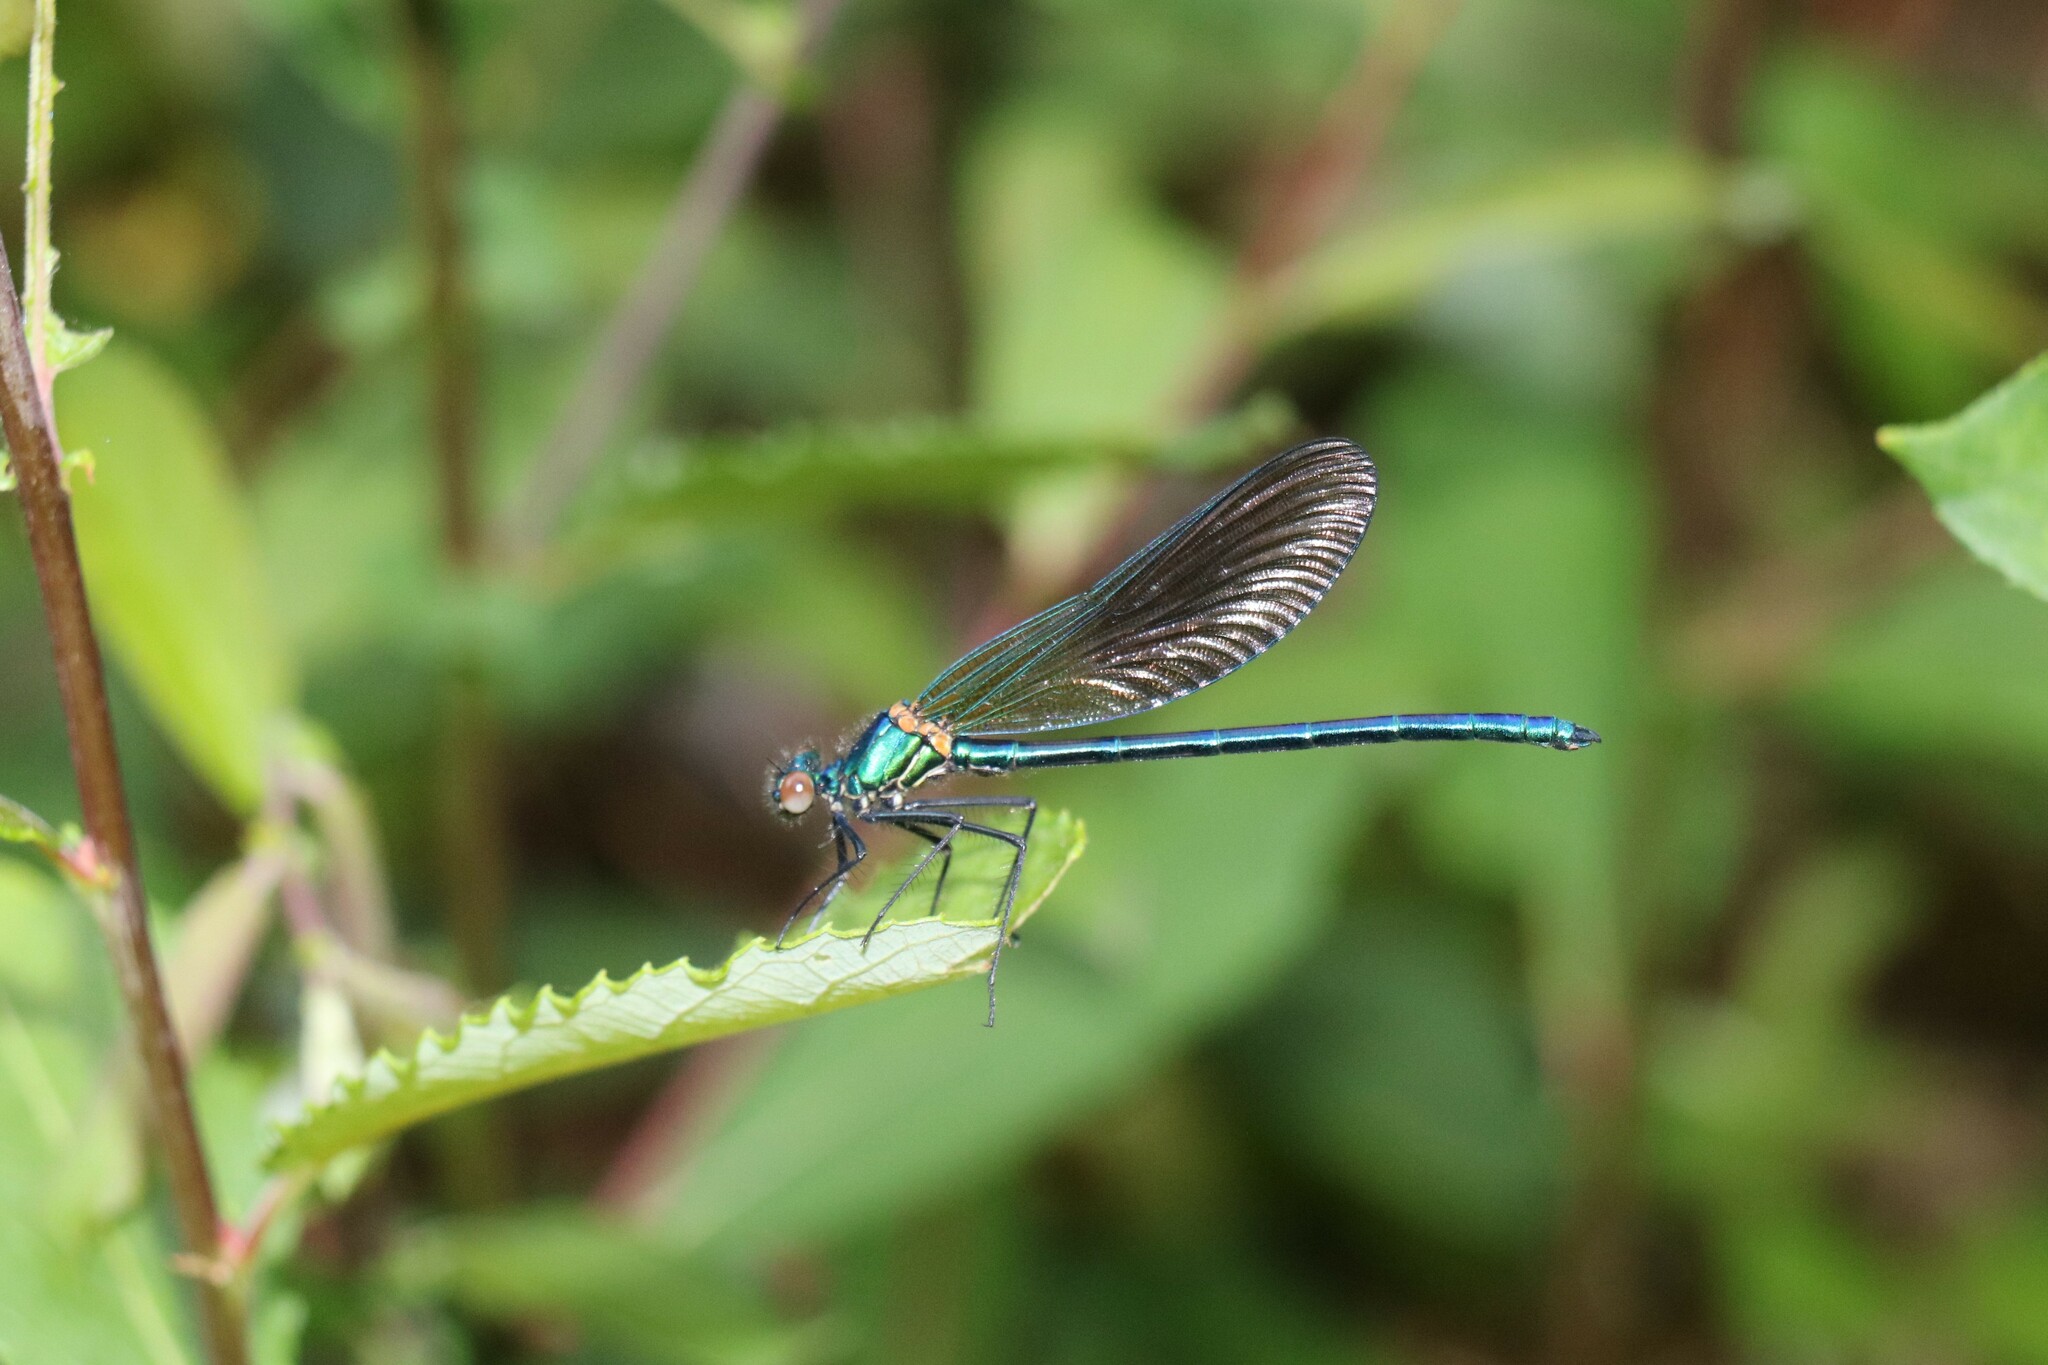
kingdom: Animalia
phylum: Arthropoda
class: Insecta
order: Odonata
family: Calopterygidae
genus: Calopteryx
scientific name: Calopteryx xanthostoma
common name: Western demoiselle
